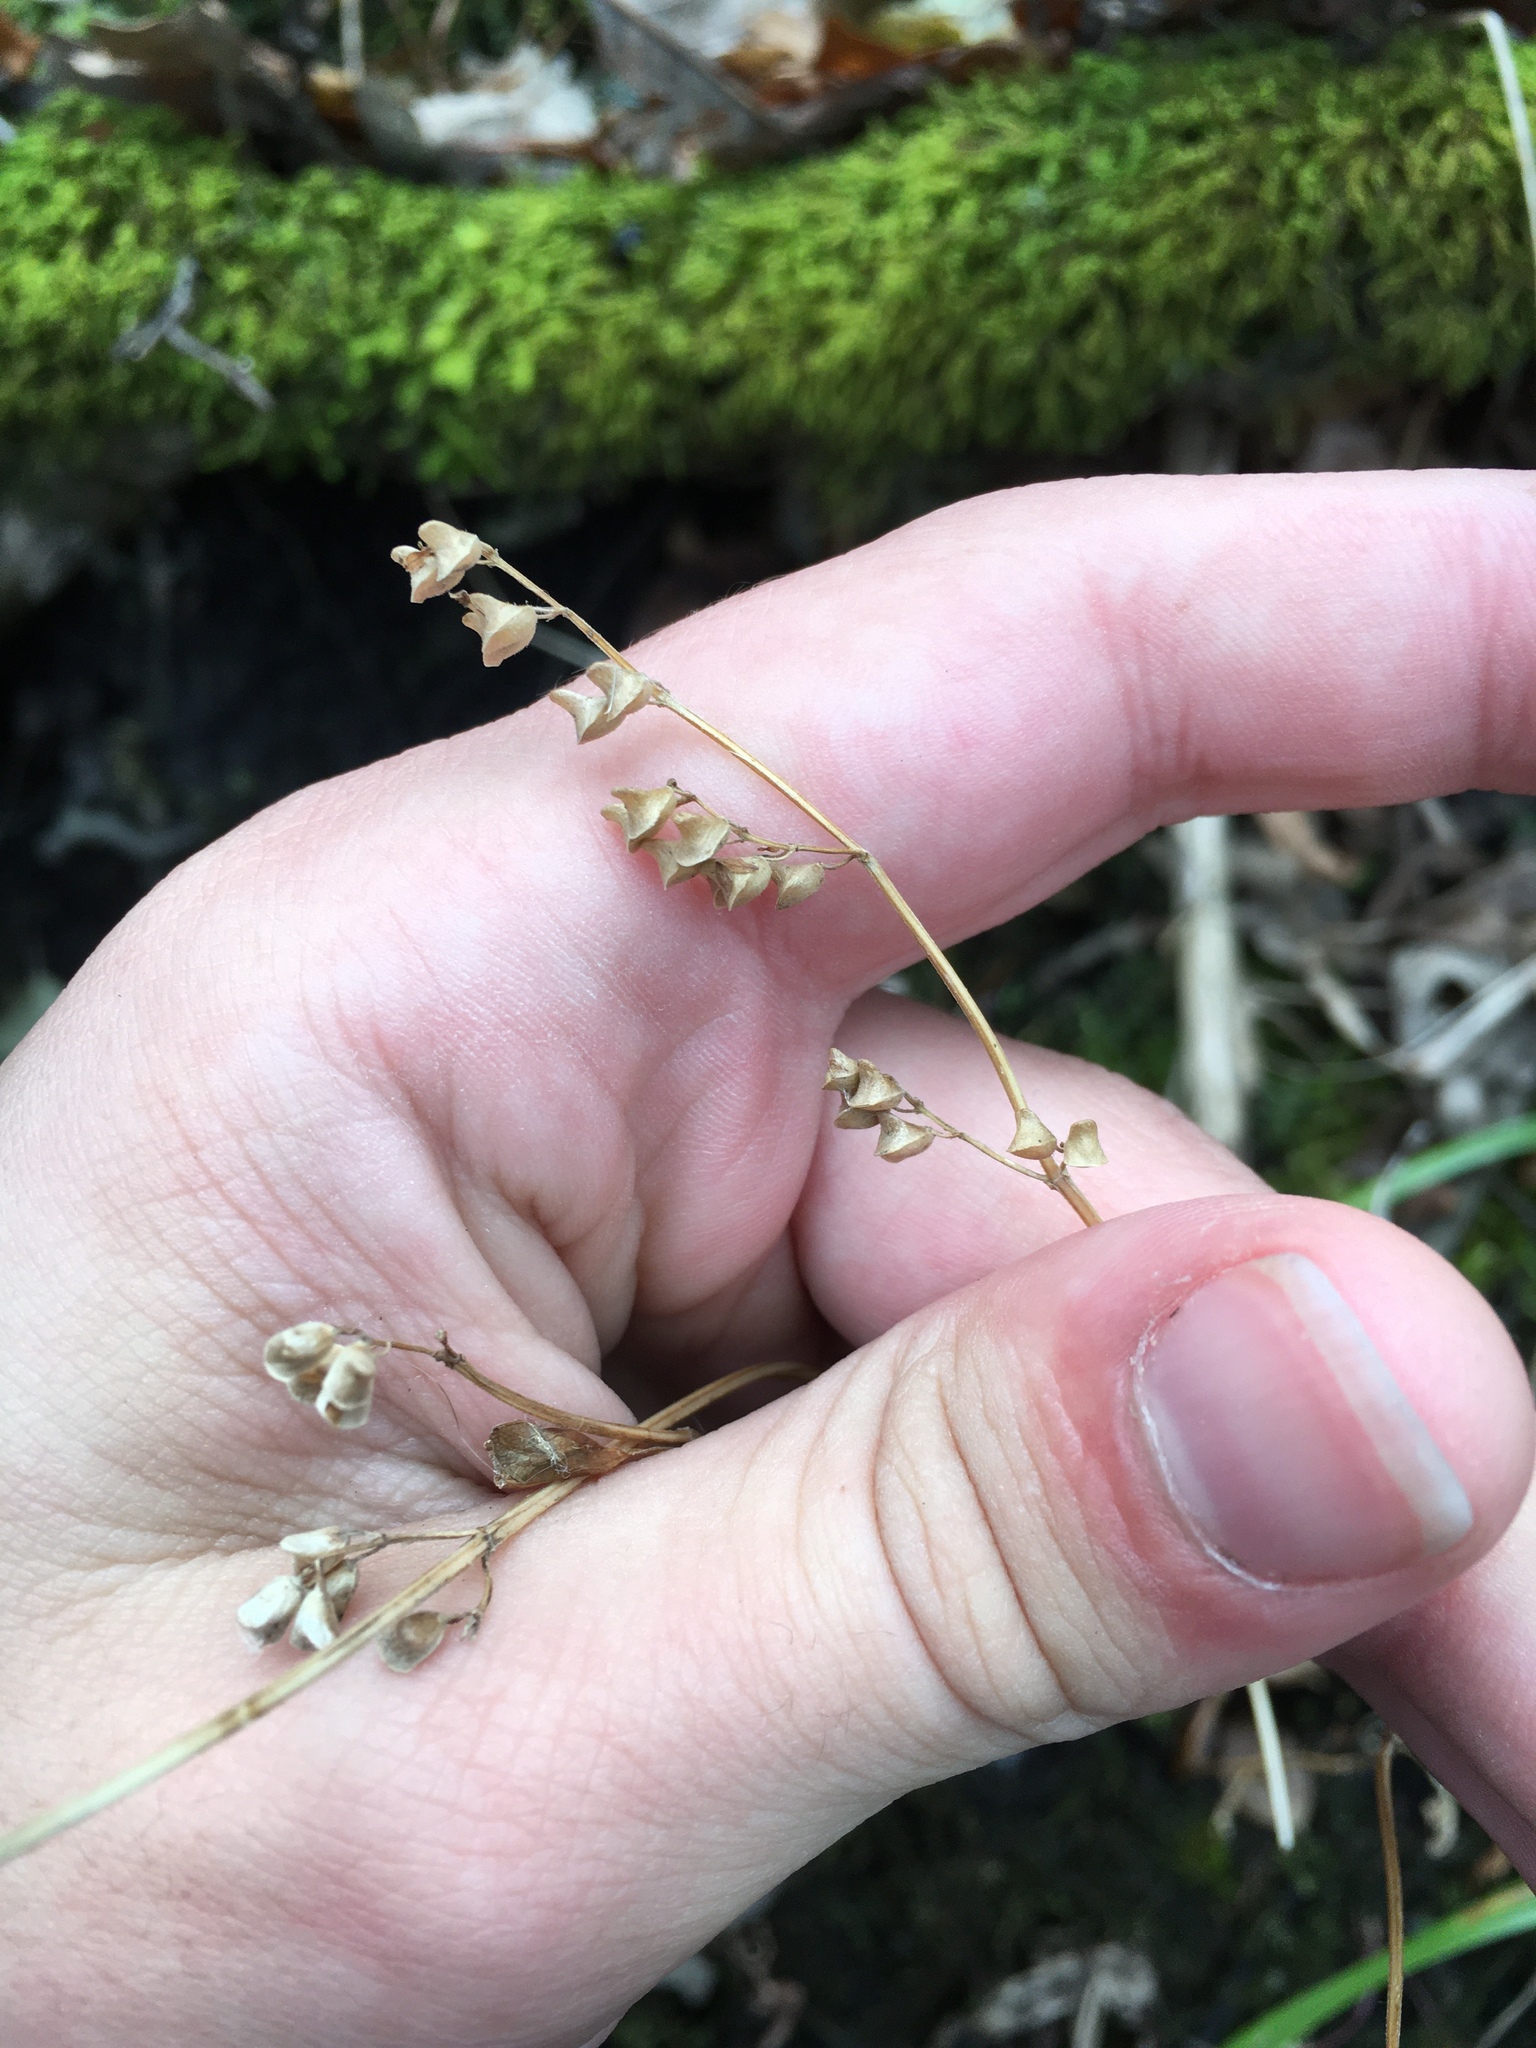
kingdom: Plantae
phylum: Tracheophyta
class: Magnoliopsida
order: Lamiales
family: Lamiaceae
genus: Scutellaria
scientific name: Scutellaria lateriflora
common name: Blue skullcap
